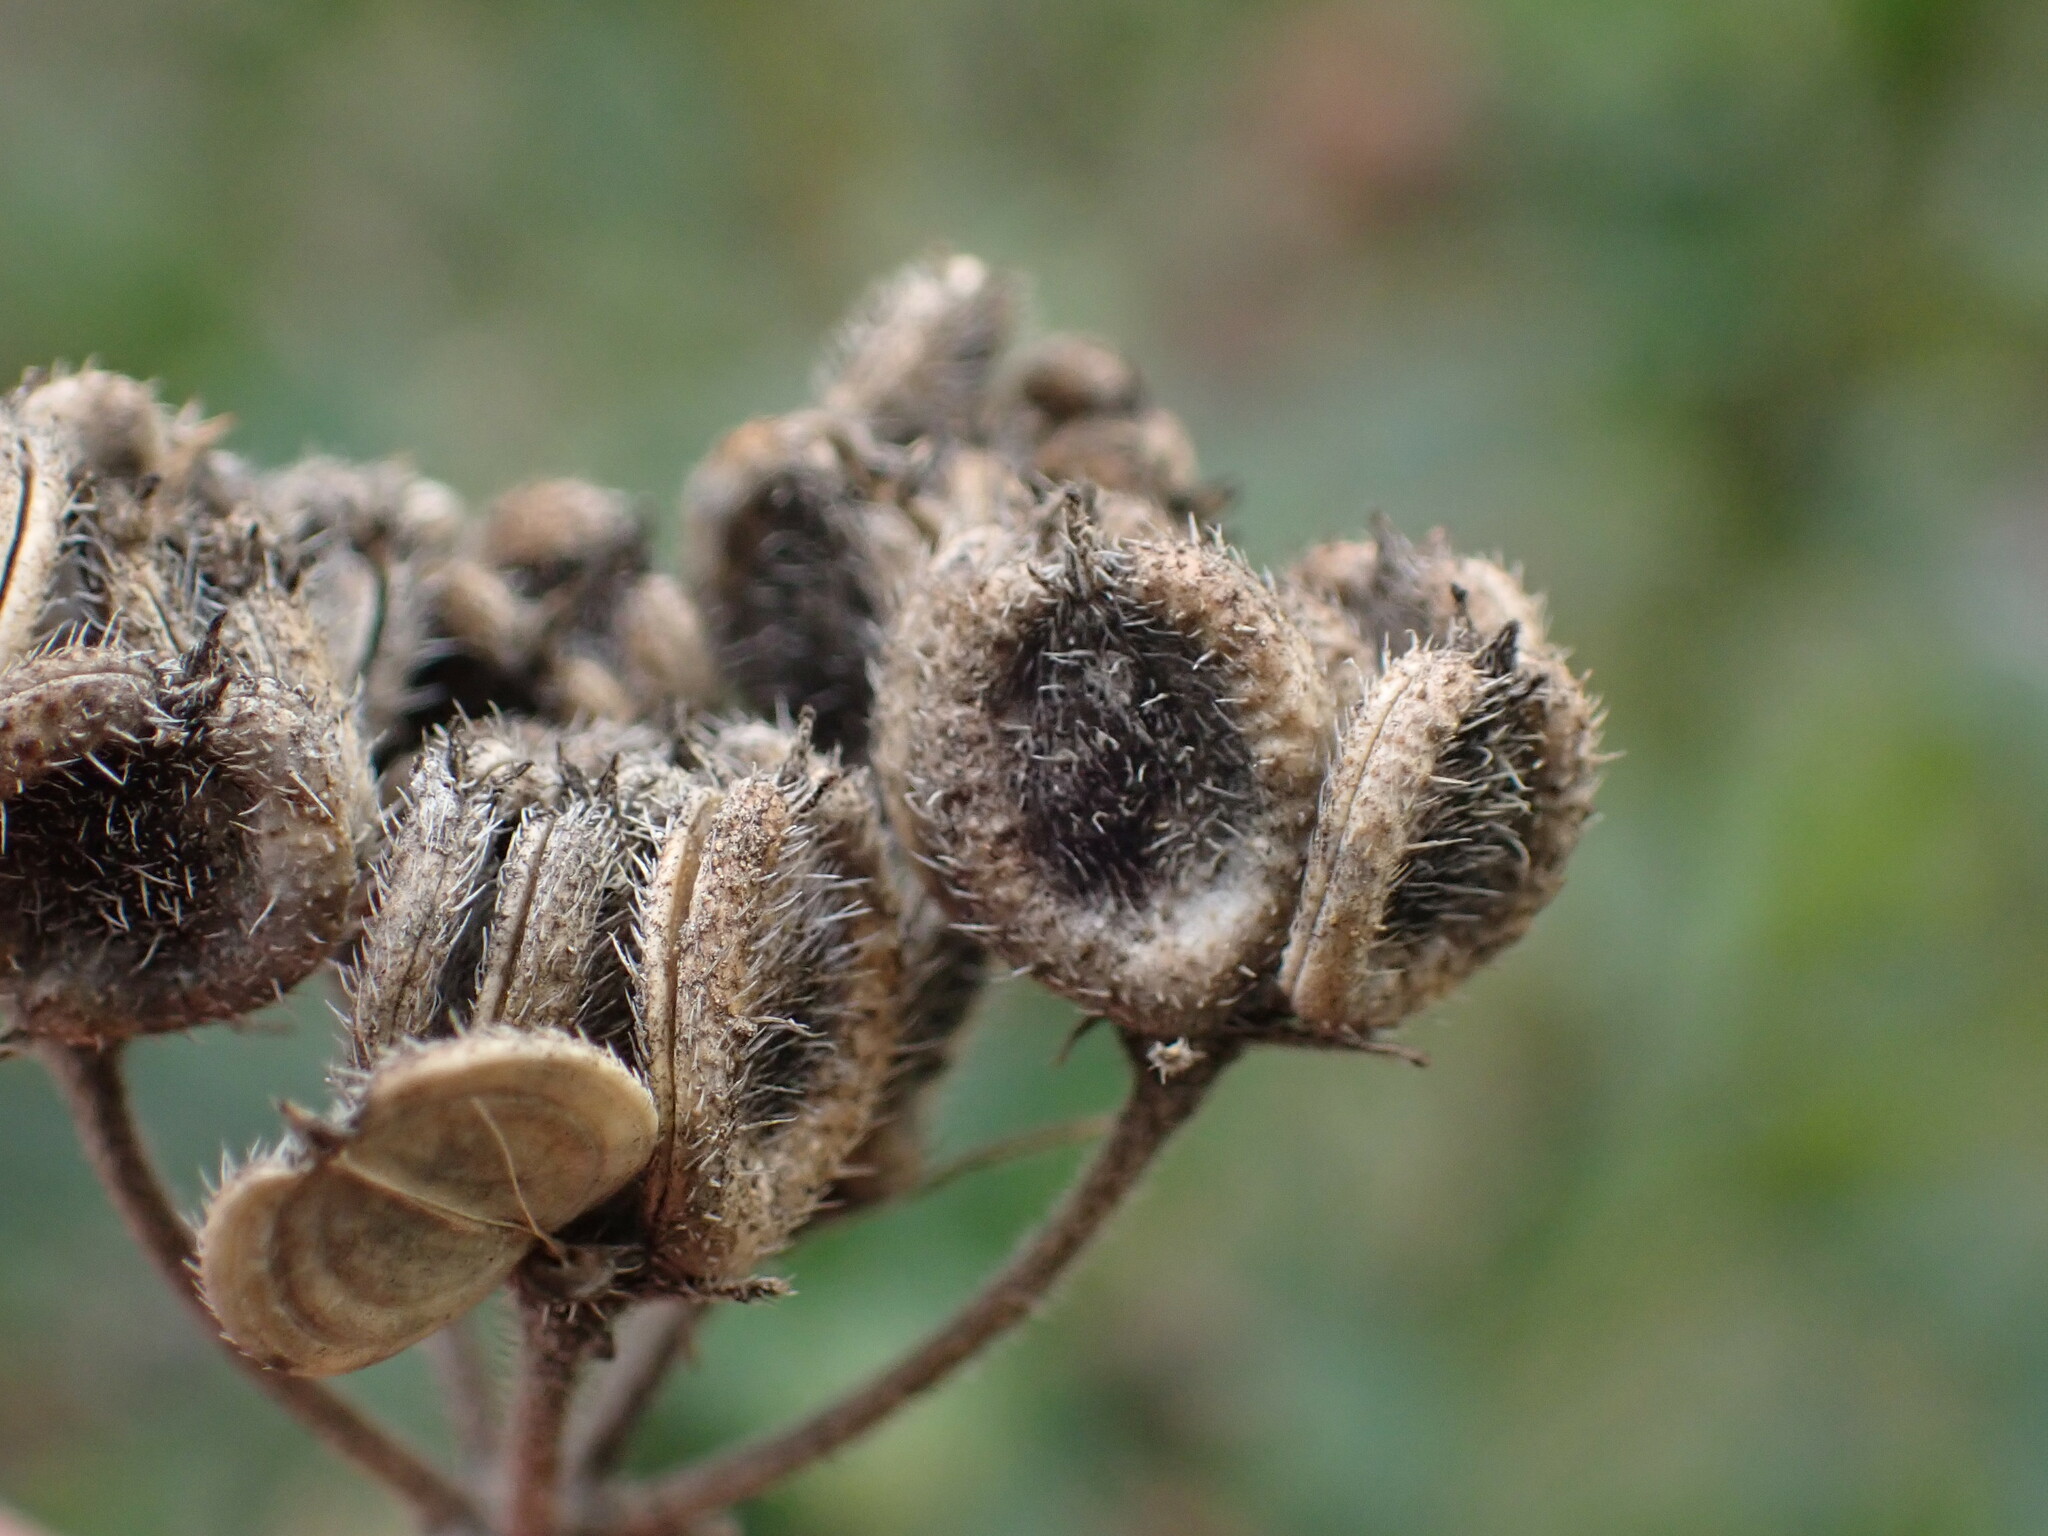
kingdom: Plantae
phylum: Tracheophyta
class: Magnoliopsida
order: Apiales
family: Apiaceae
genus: Tordylium
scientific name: Tordylium maximum
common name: Hartwort
